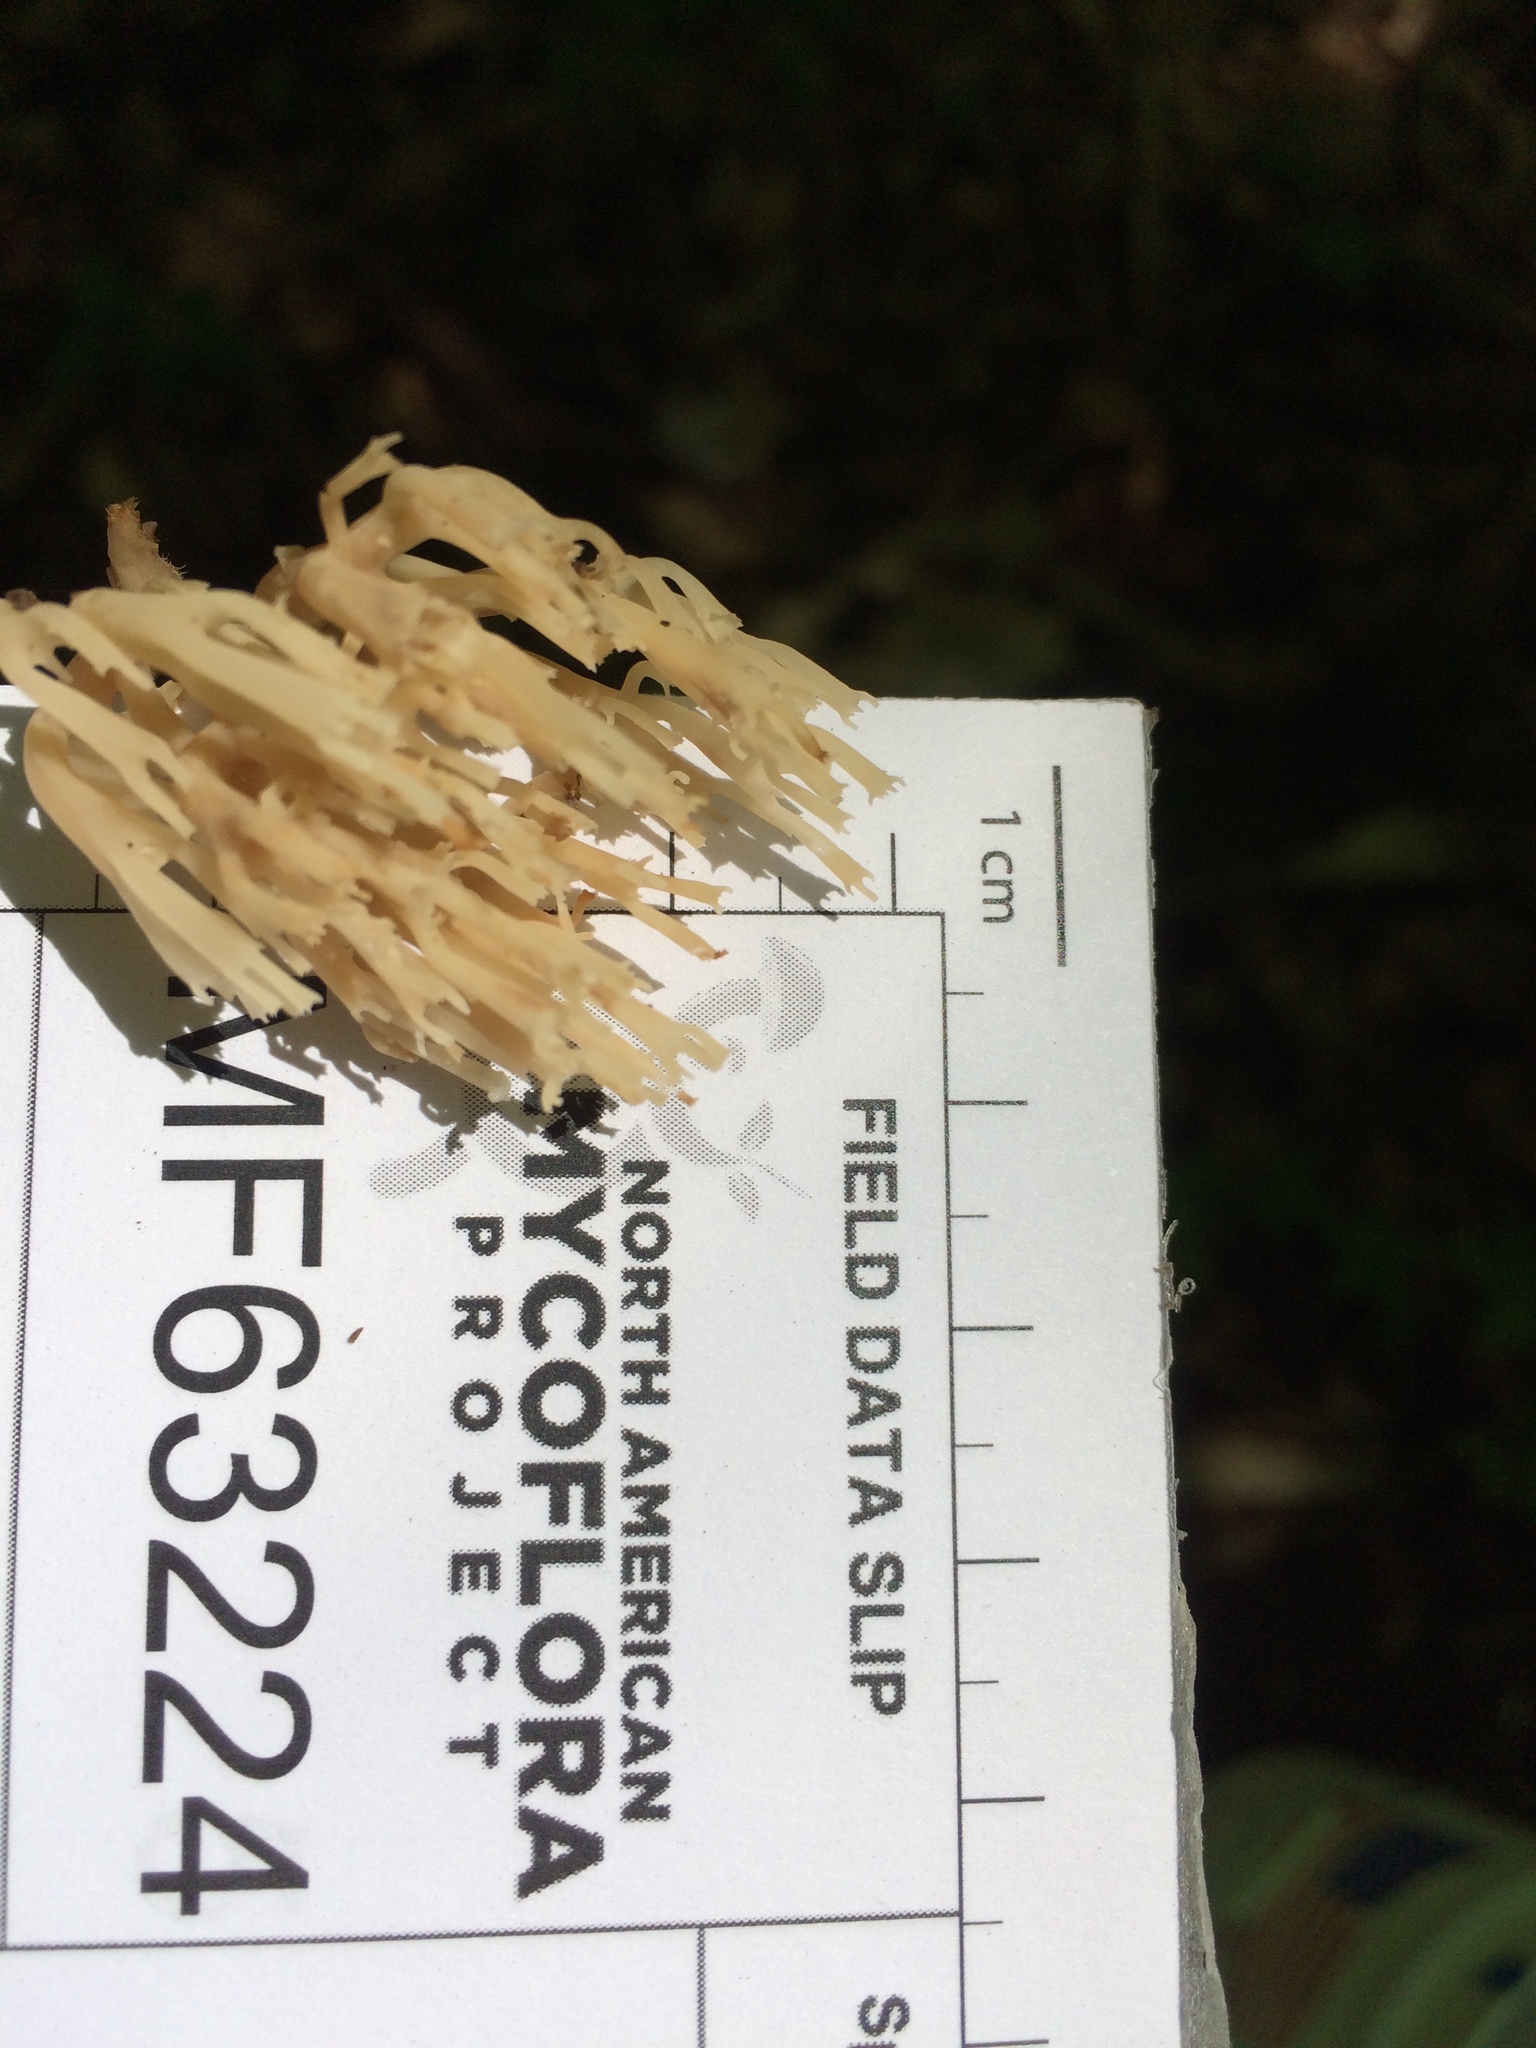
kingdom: Fungi
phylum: Basidiomycota
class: Agaricomycetes
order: Russulales
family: Auriscalpiaceae
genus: Artomyces
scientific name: Artomyces pyxidatus
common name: Crown-tipped coral fungus
